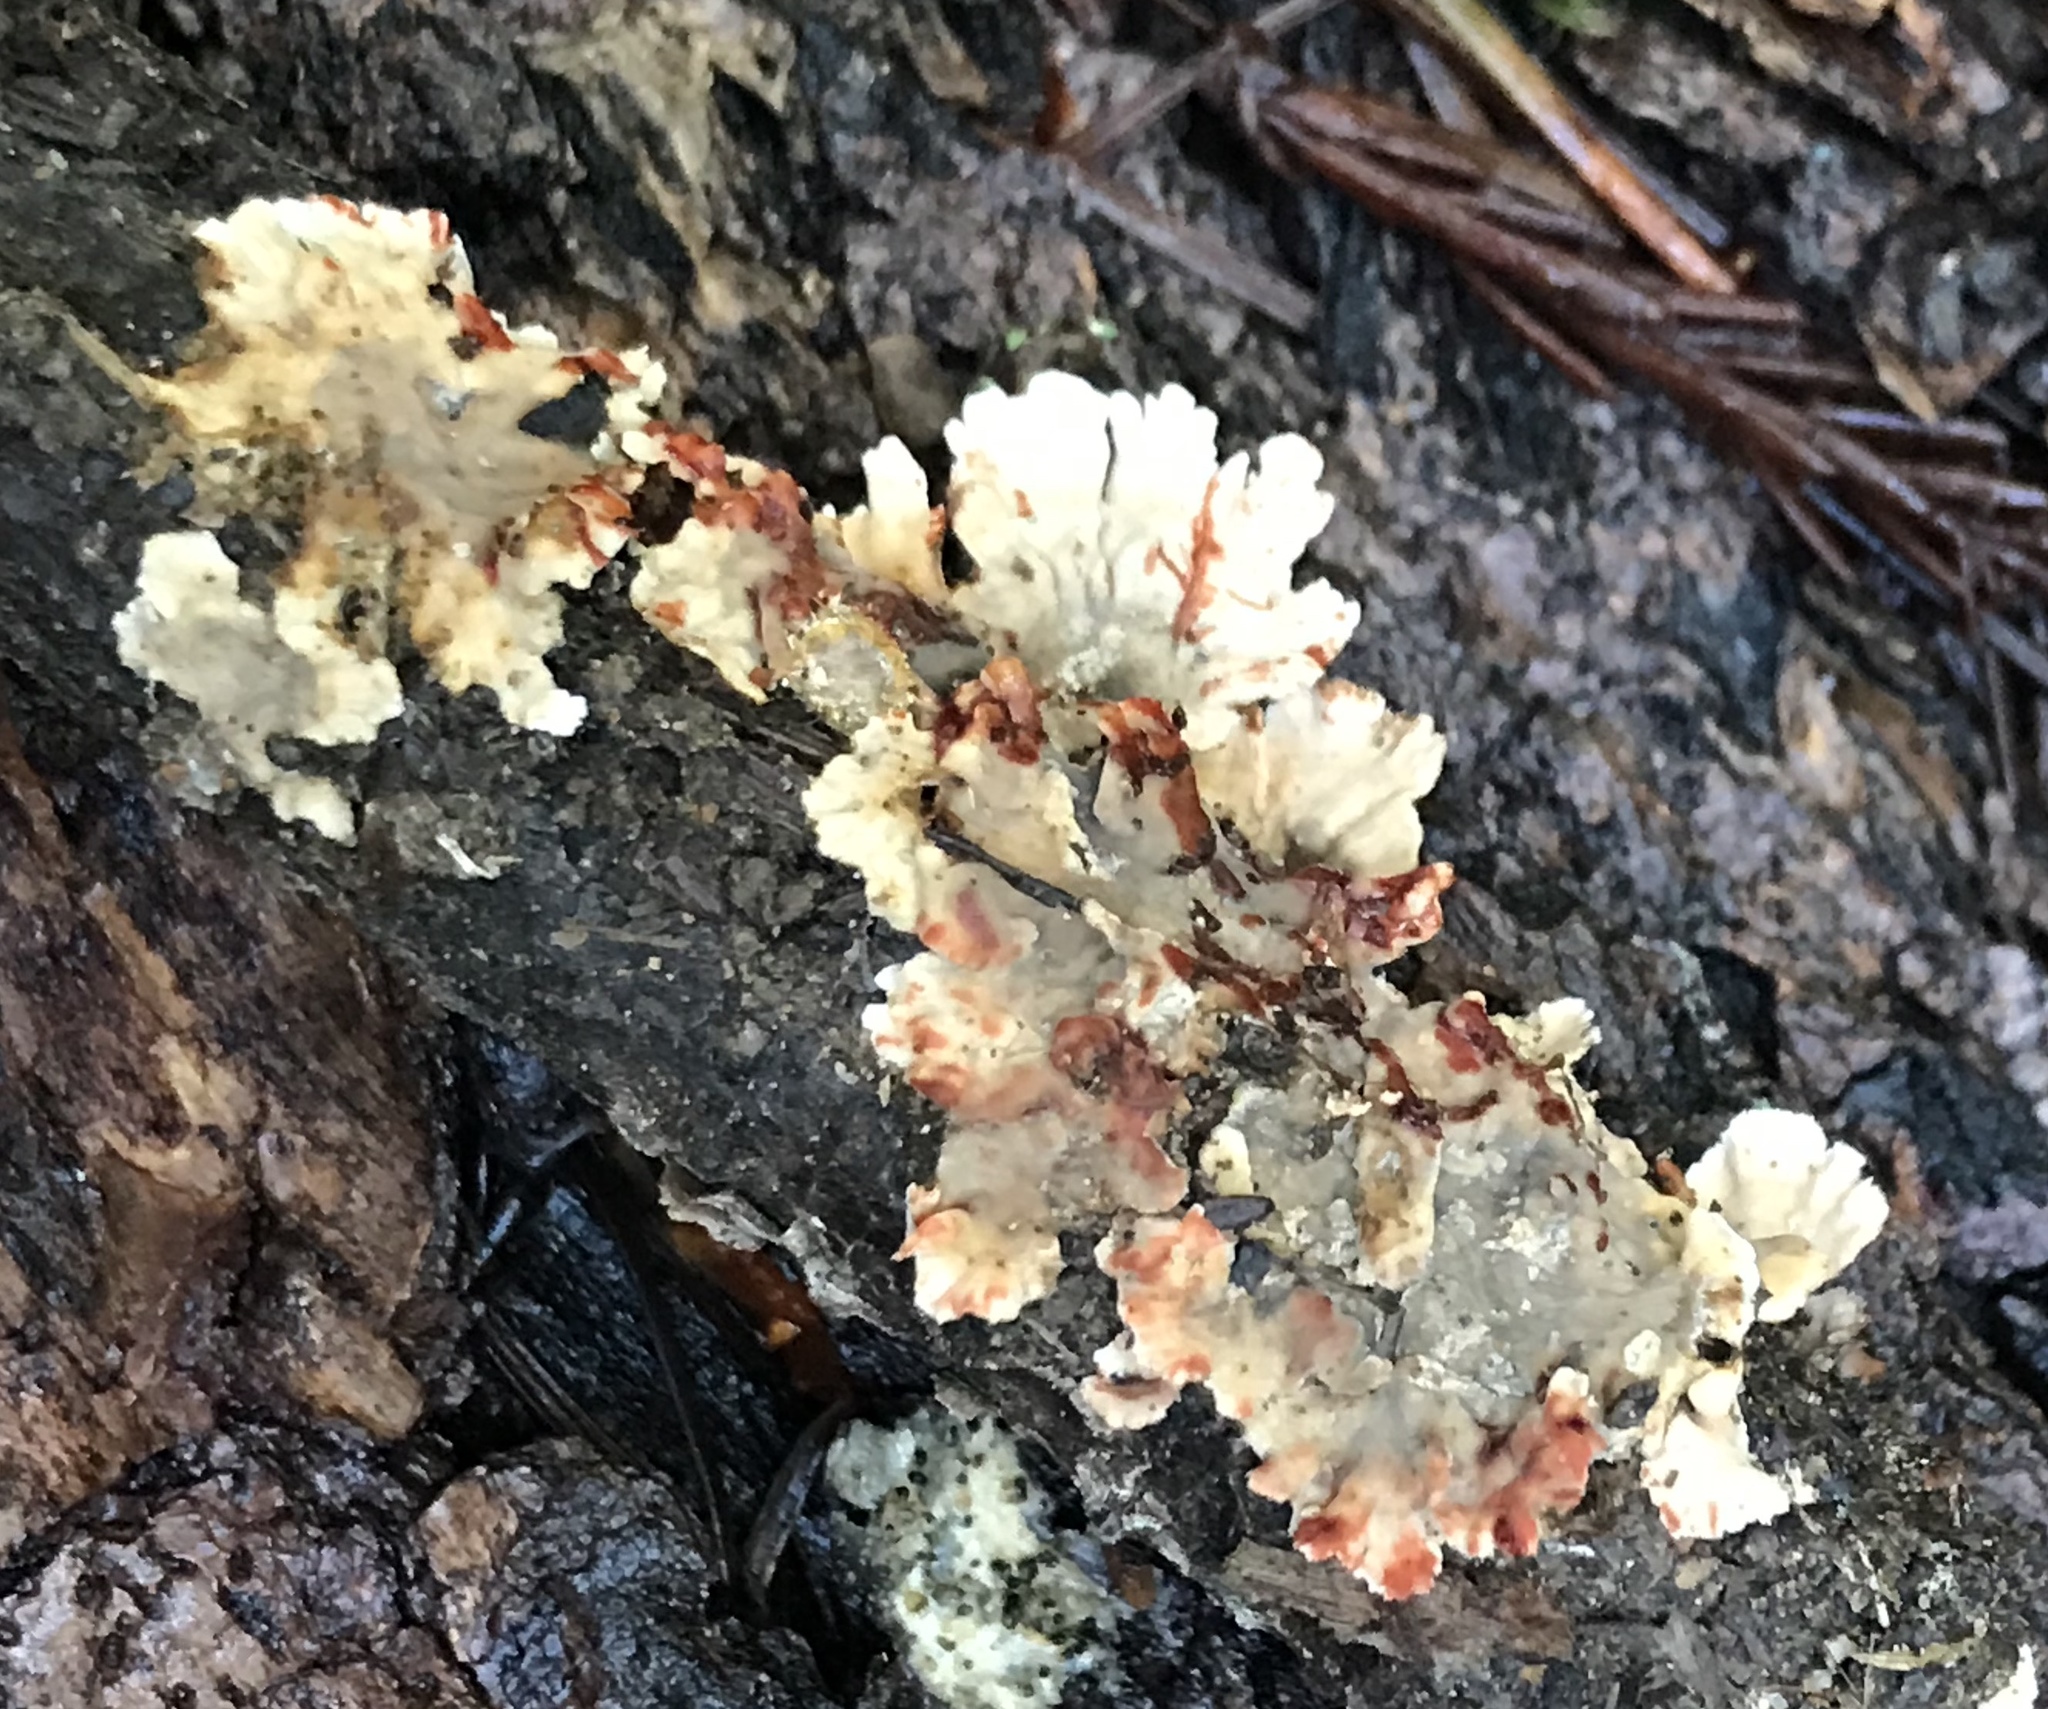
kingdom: Fungi
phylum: Basidiomycota
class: Agaricomycetes
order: Russulales
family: Stereaceae
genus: Stereum
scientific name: Stereum sanguinolentum
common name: Bleeding conifer crust
